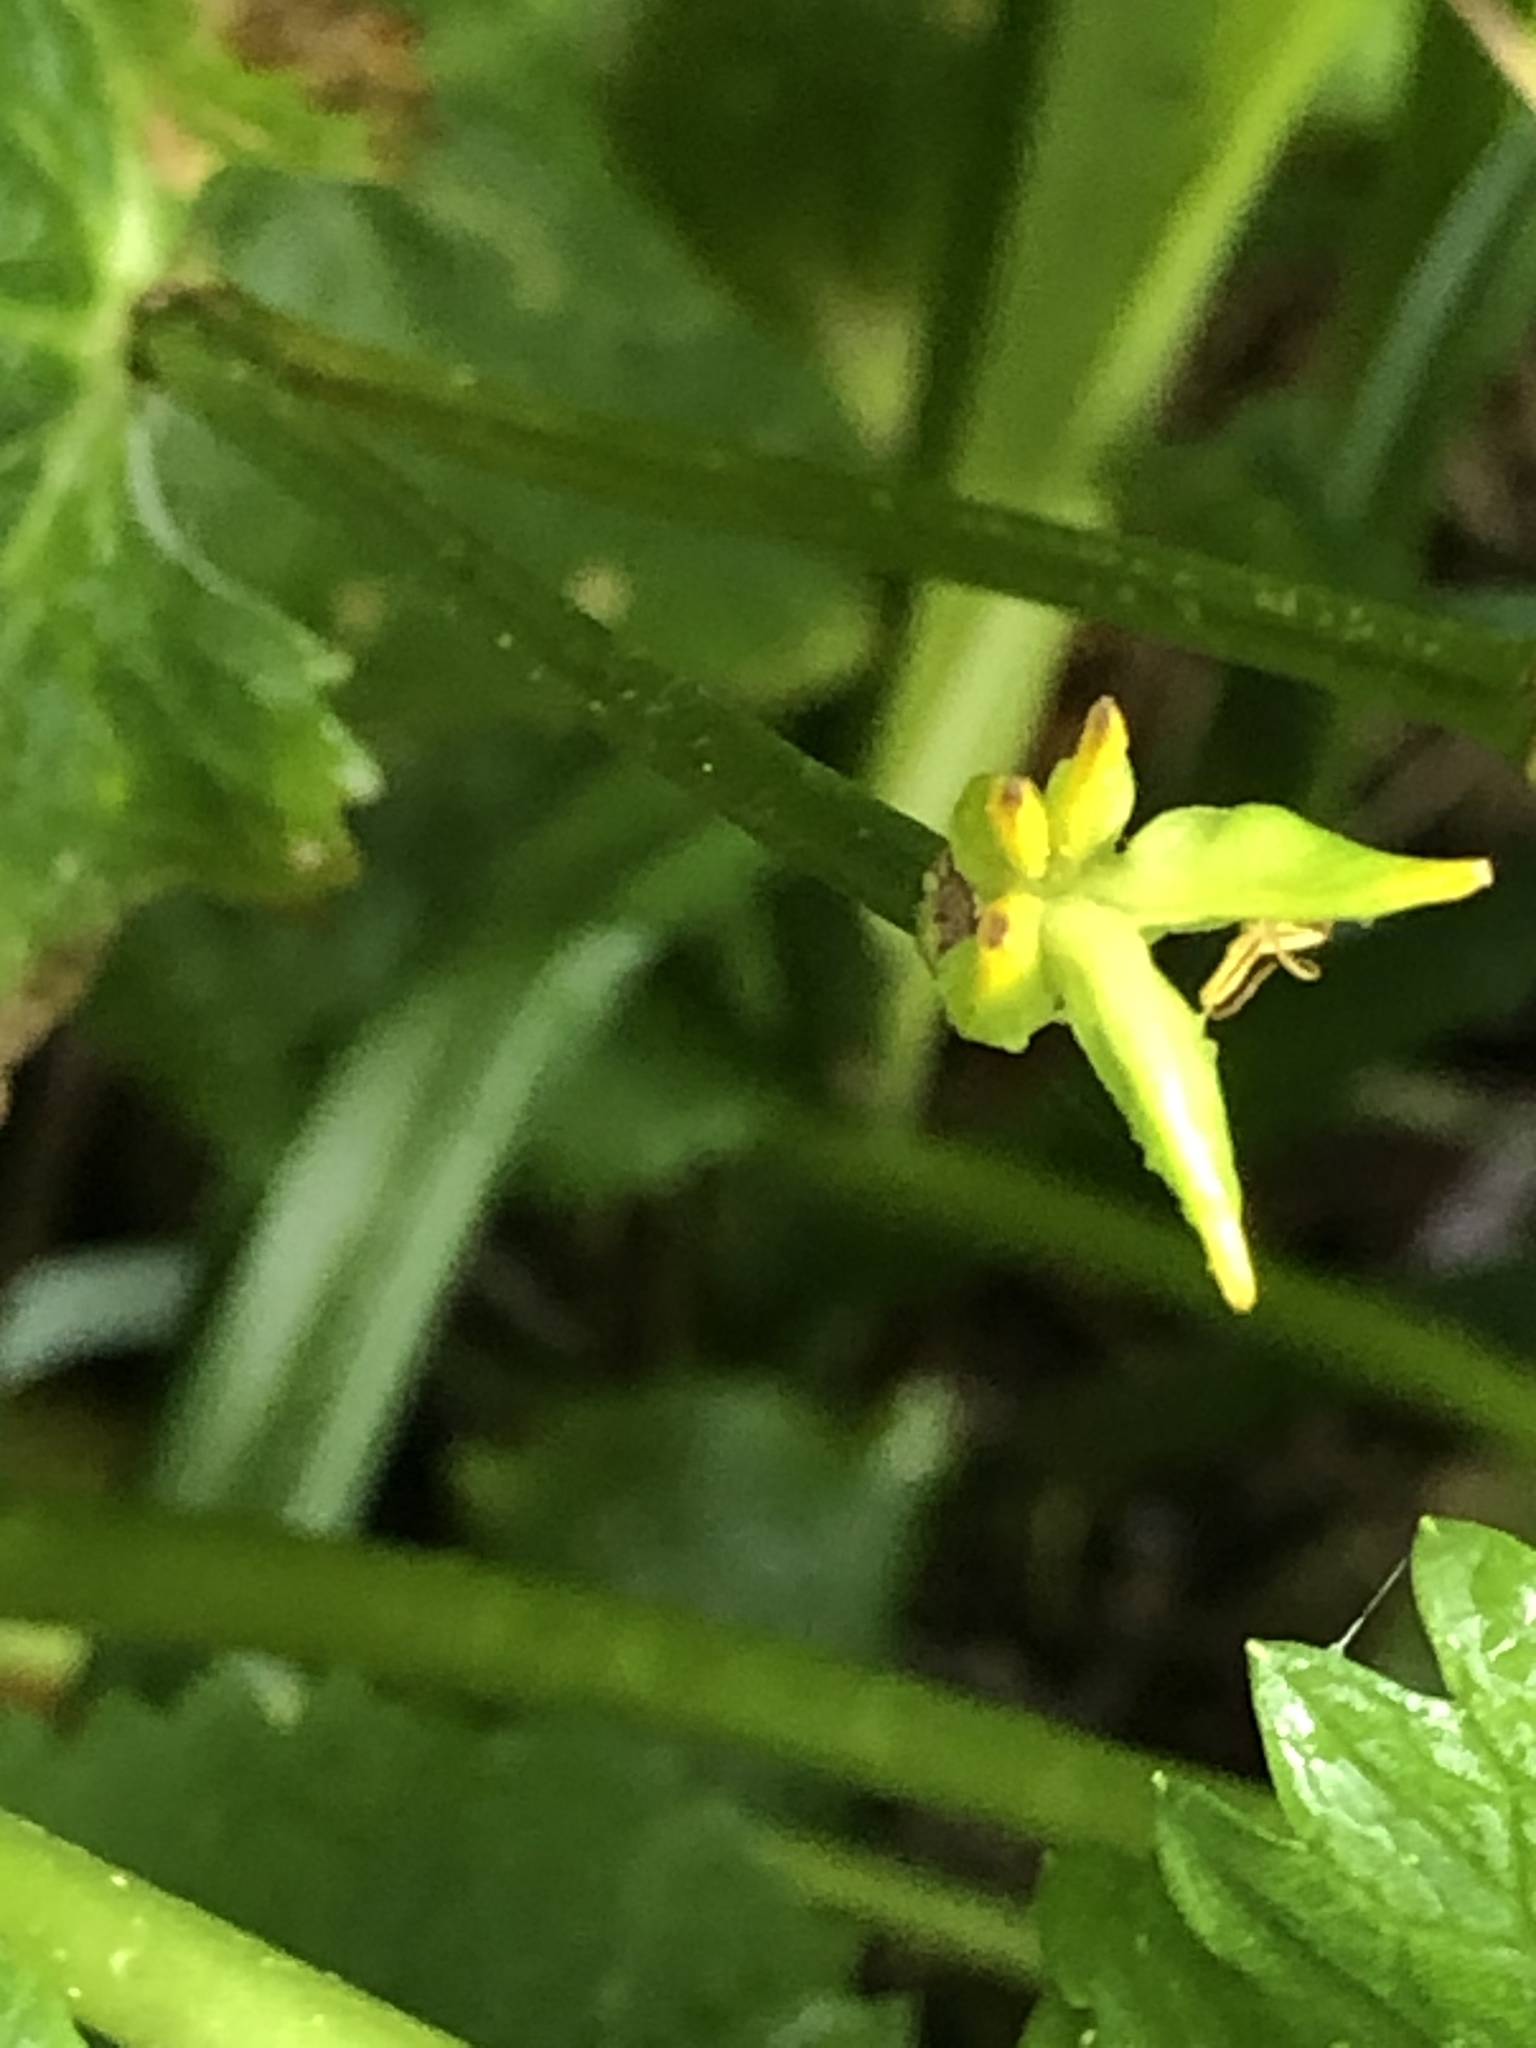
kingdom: Plantae
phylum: Tracheophyta
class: Magnoliopsida
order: Ranunculales
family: Ranunculaceae
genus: Caltha
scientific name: Caltha palustris
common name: Marsh marigold
